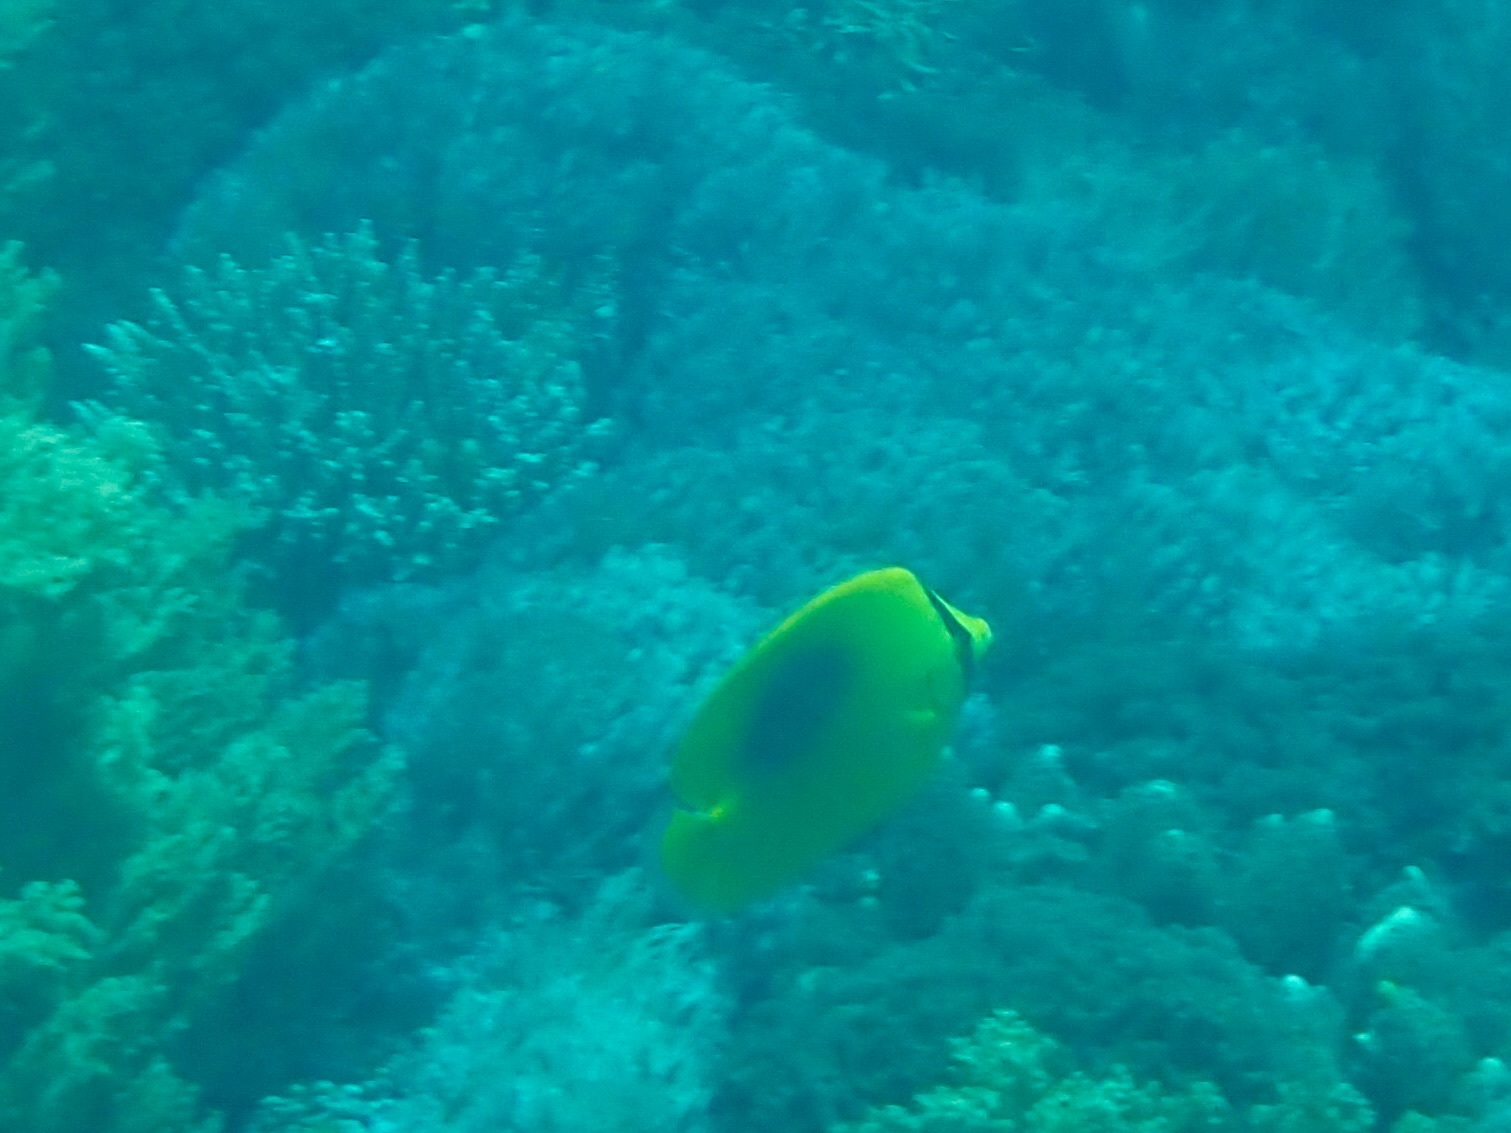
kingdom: Animalia
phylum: Chordata
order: Perciformes
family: Chaetodontidae
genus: Chaetodon
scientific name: Chaetodon speculum
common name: Mirror butterflyfish
